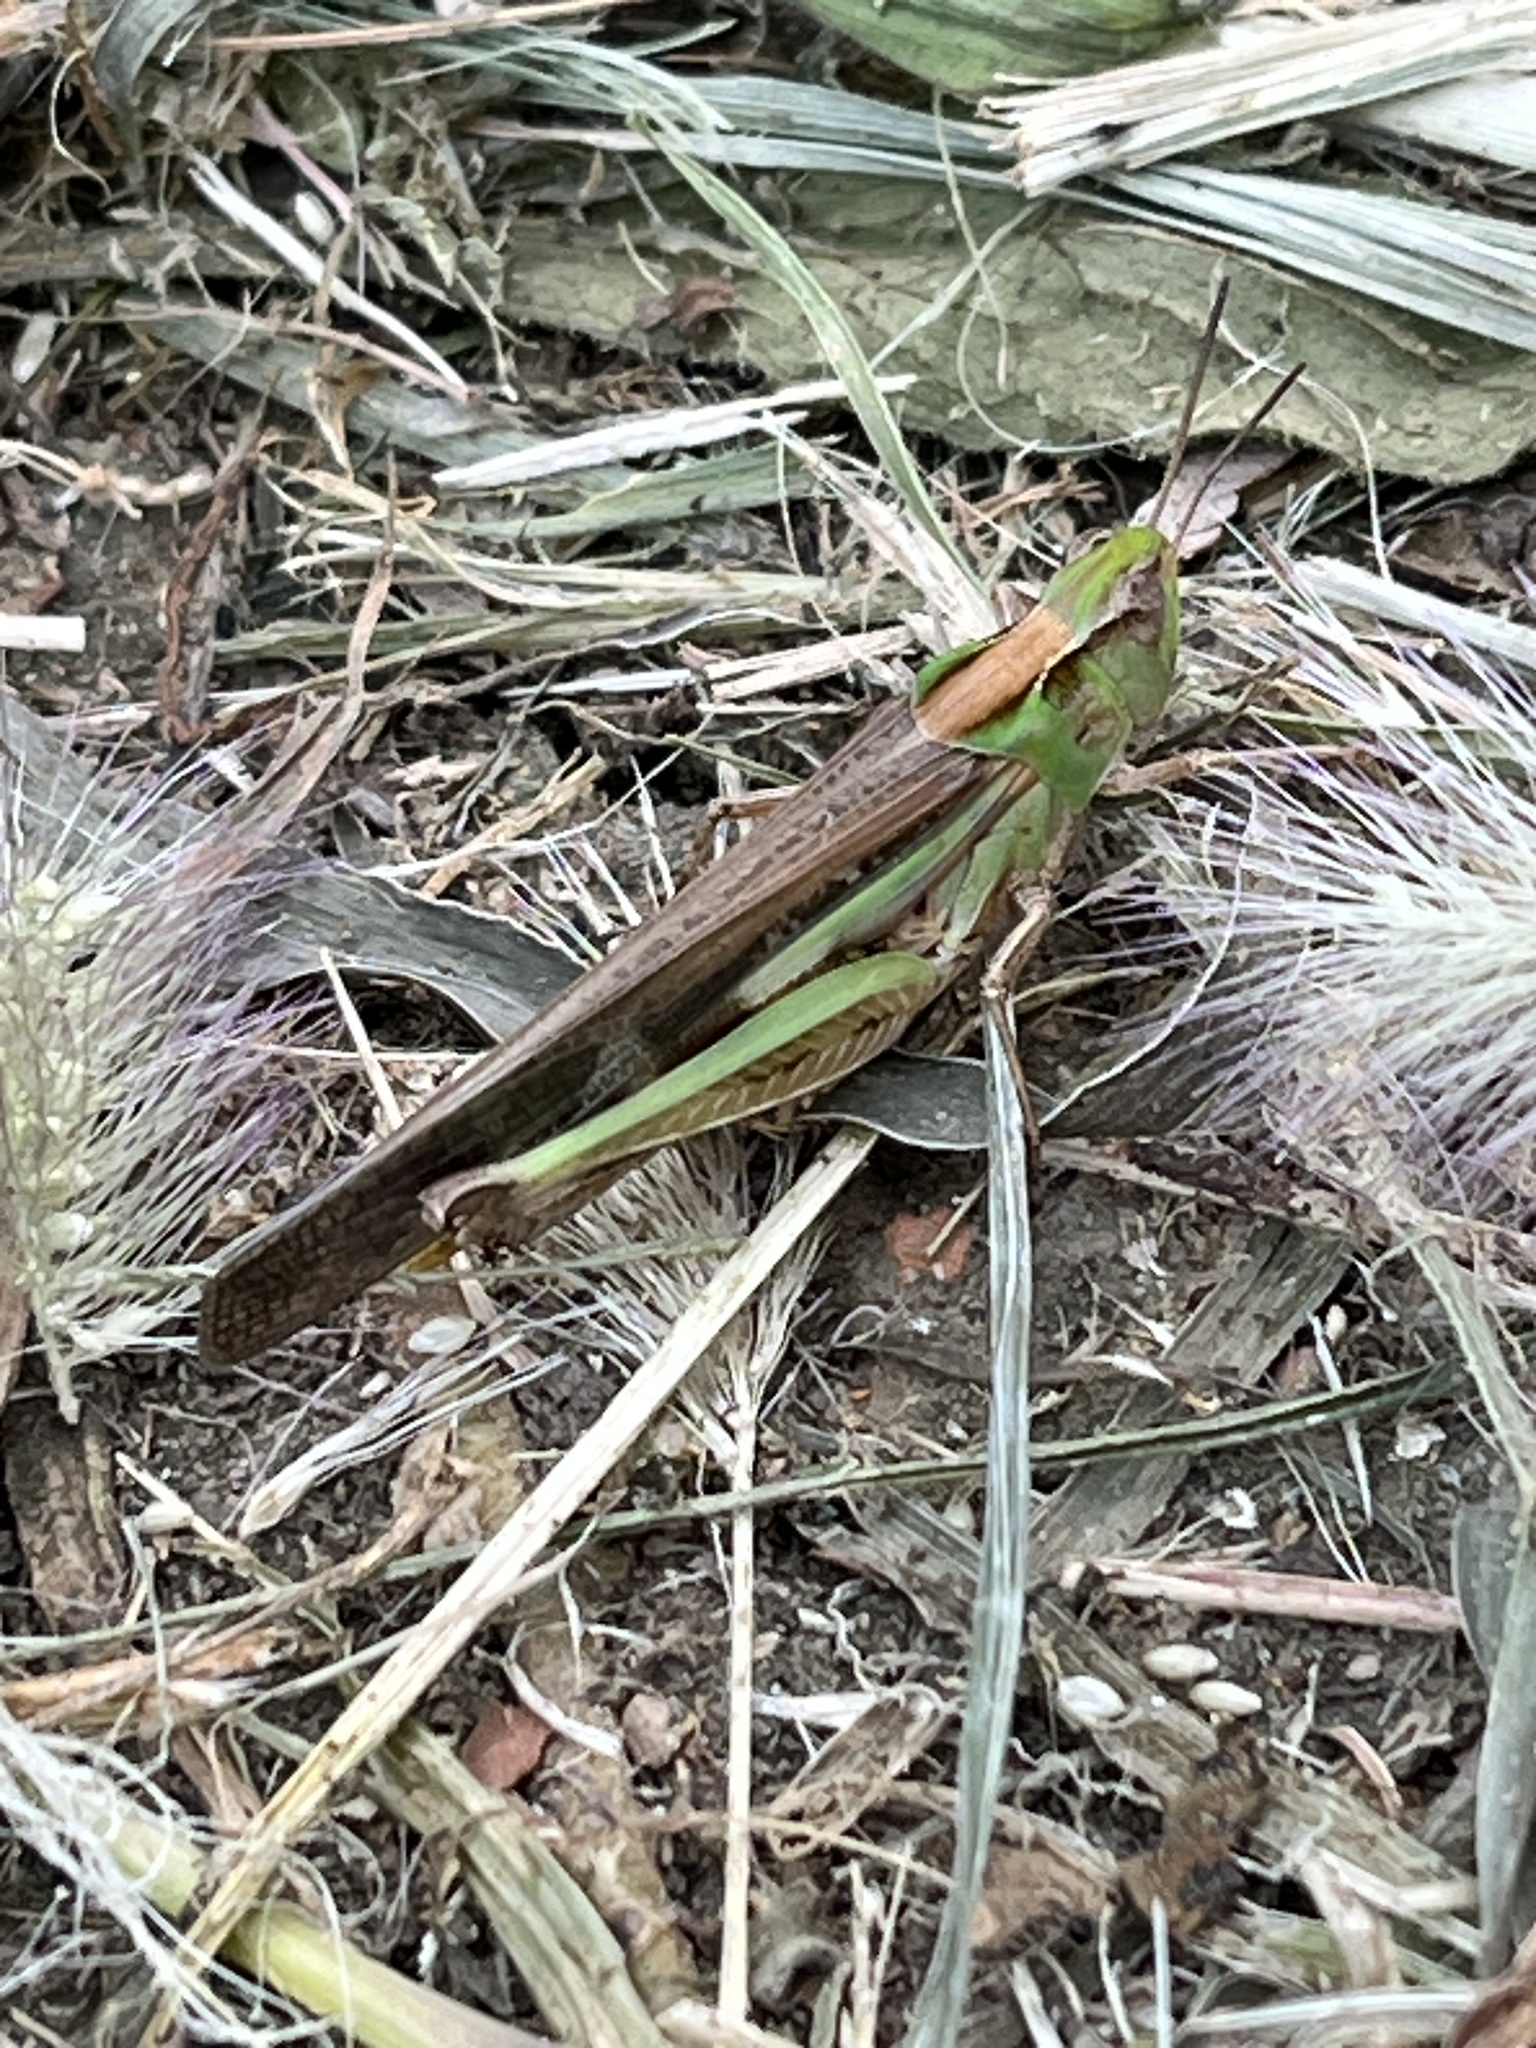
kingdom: Animalia
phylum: Arthropoda
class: Insecta
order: Orthoptera
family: Acrididae
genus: Aiolopus
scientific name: Aiolopus thalassinus
